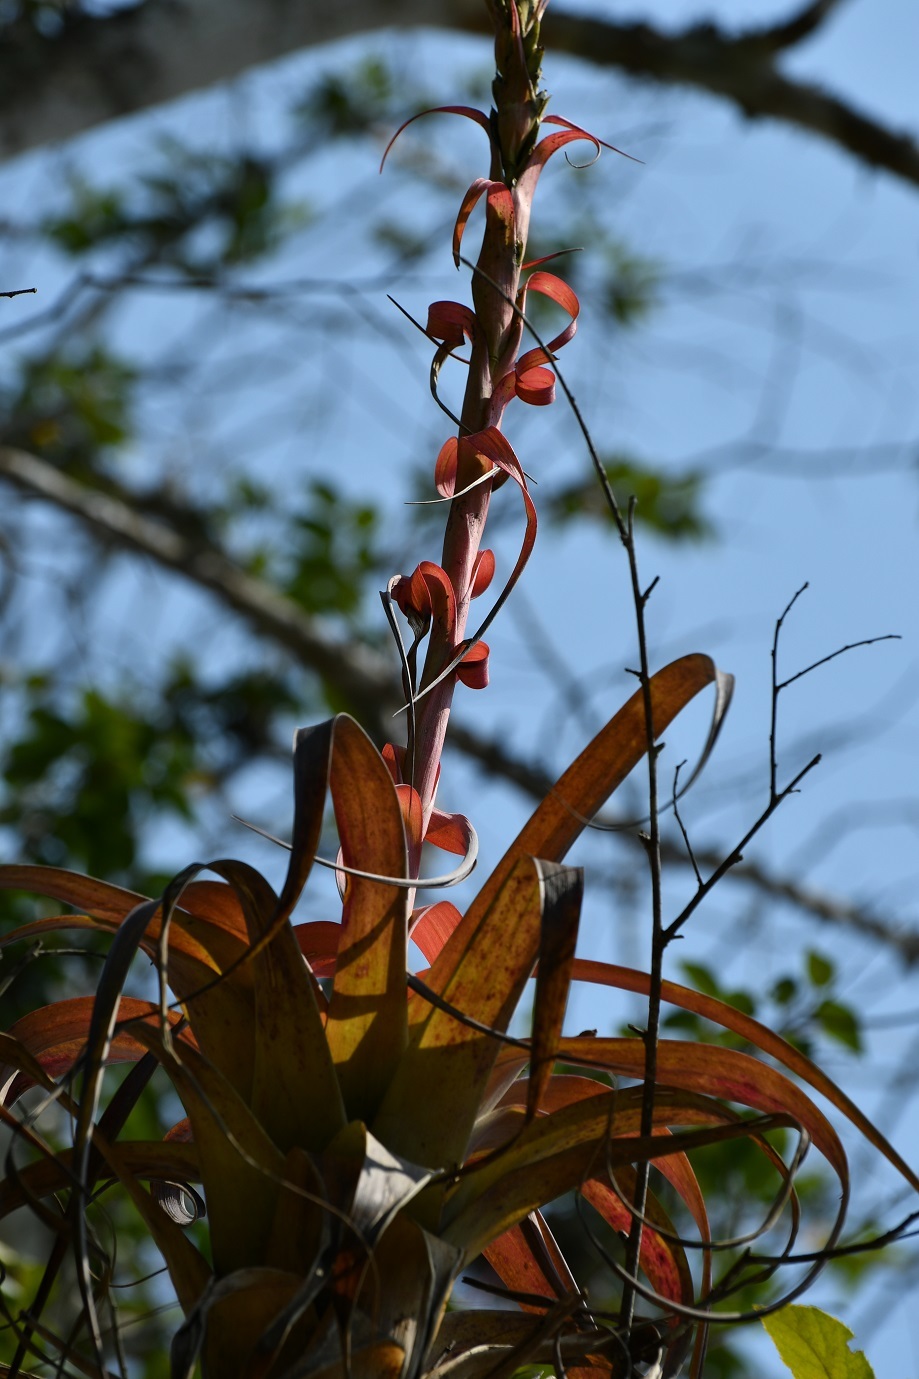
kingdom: Plantae
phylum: Tracheophyta
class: Liliopsida
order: Poales
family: Bromeliaceae
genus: Tillandsia
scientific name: Tillandsia belloensis
